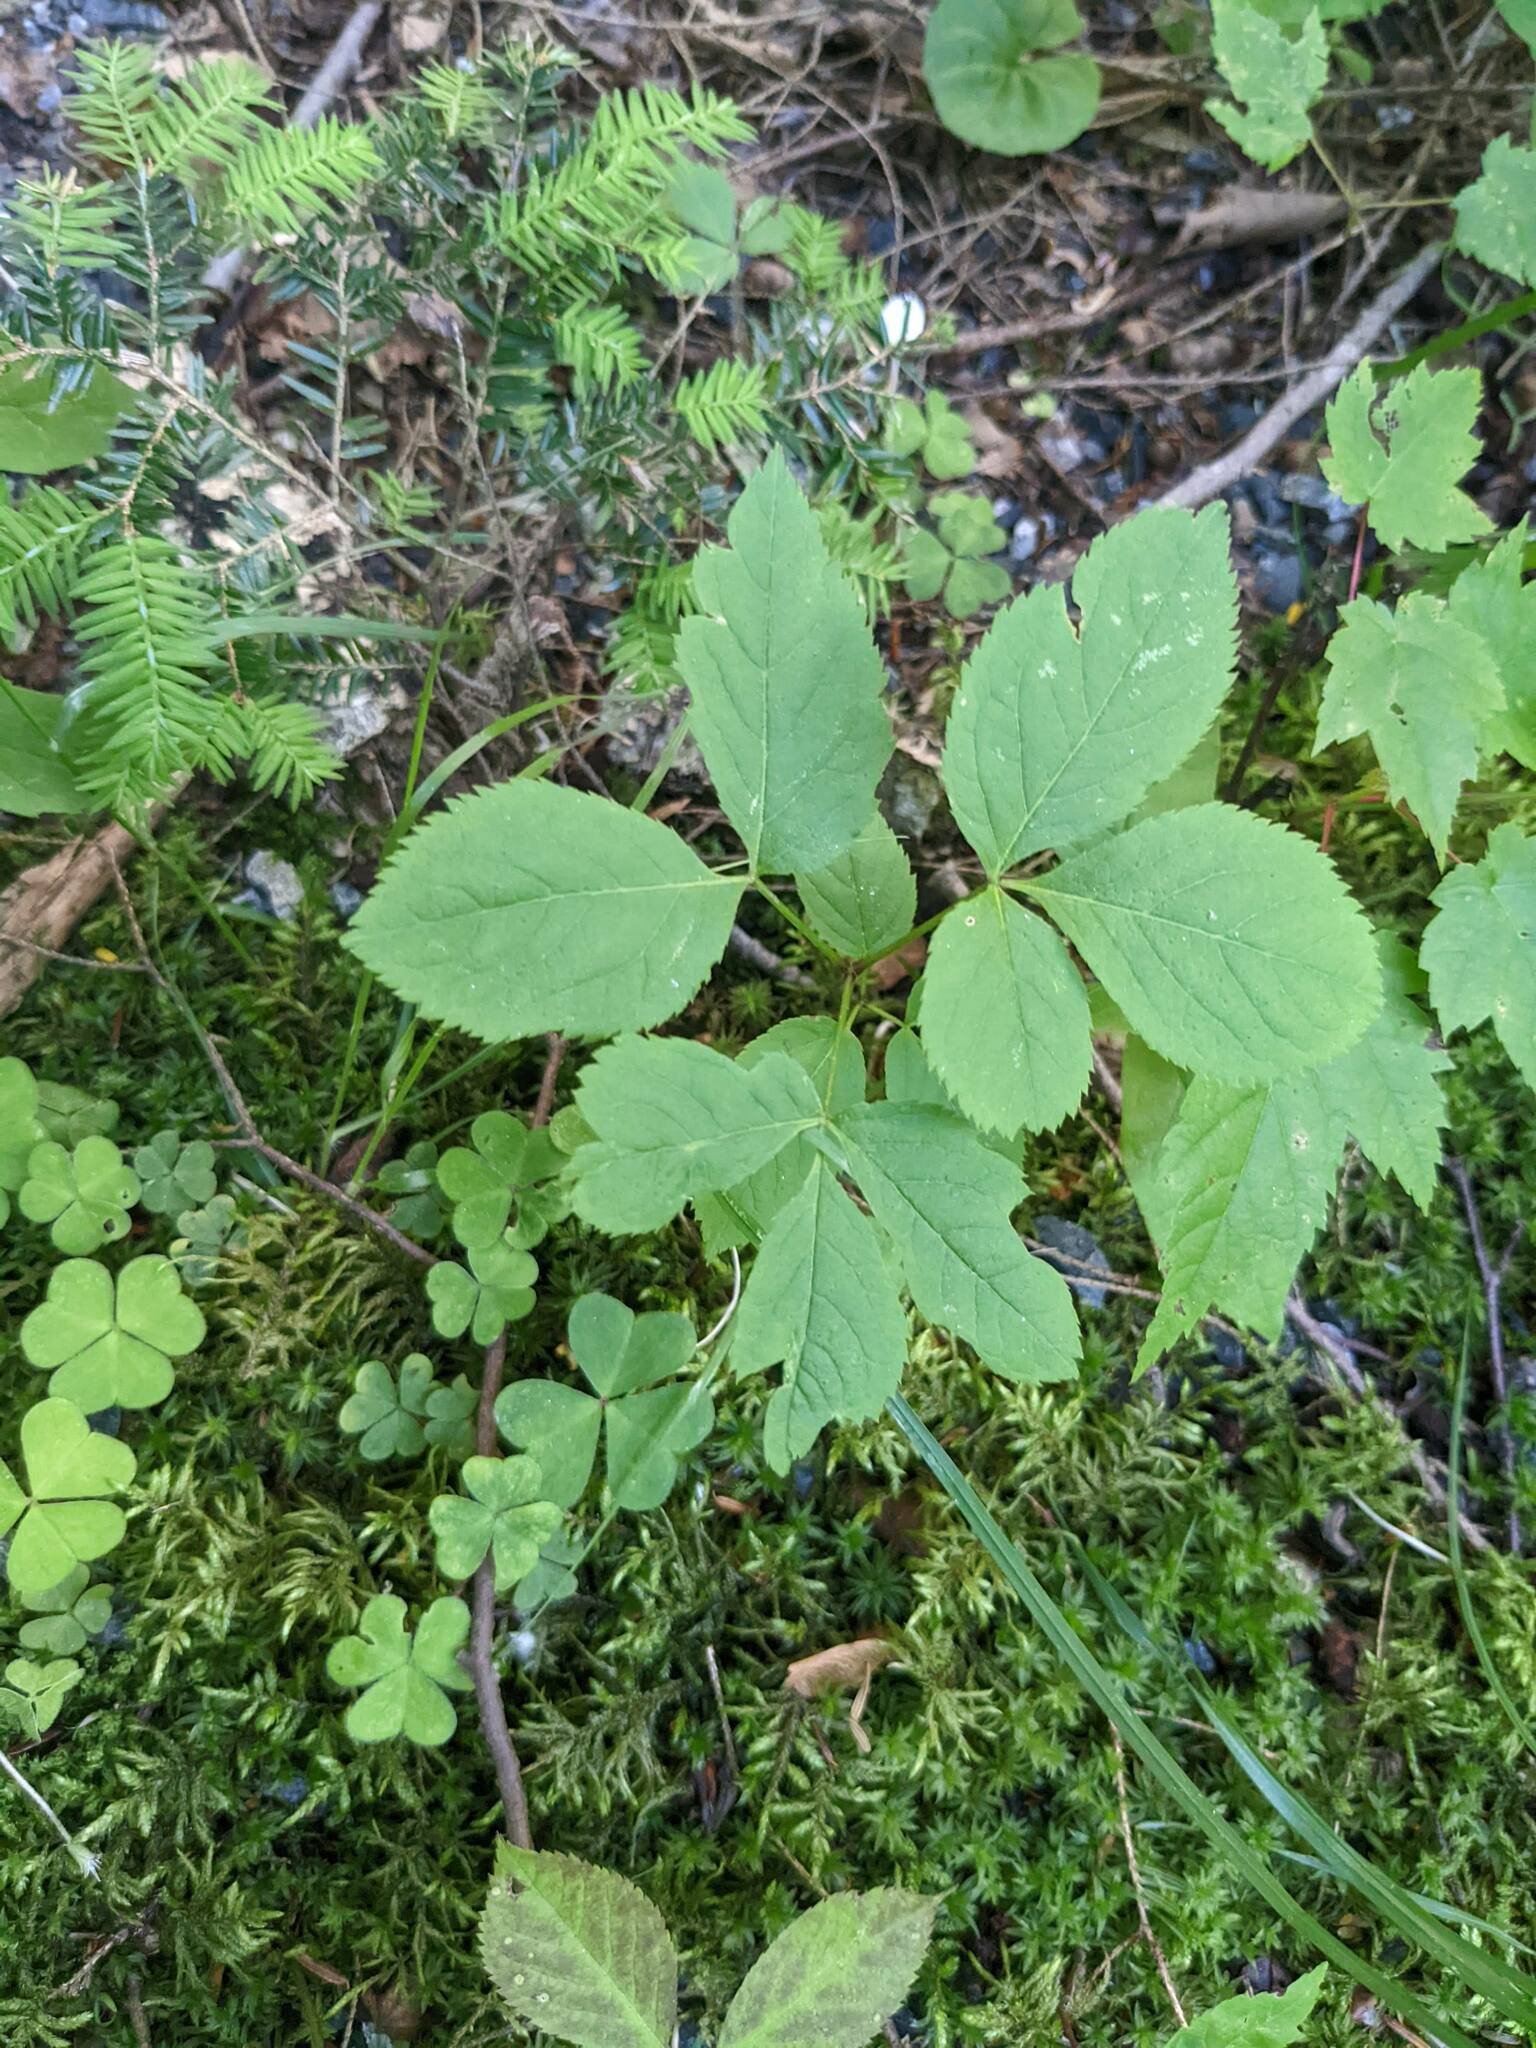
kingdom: Plantae
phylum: Tracheophyta
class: Magnoliopsida
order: Apiales
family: Araliaceae
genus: Aralia
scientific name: Aralia nudicaulis
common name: Wild sarsaparilla
